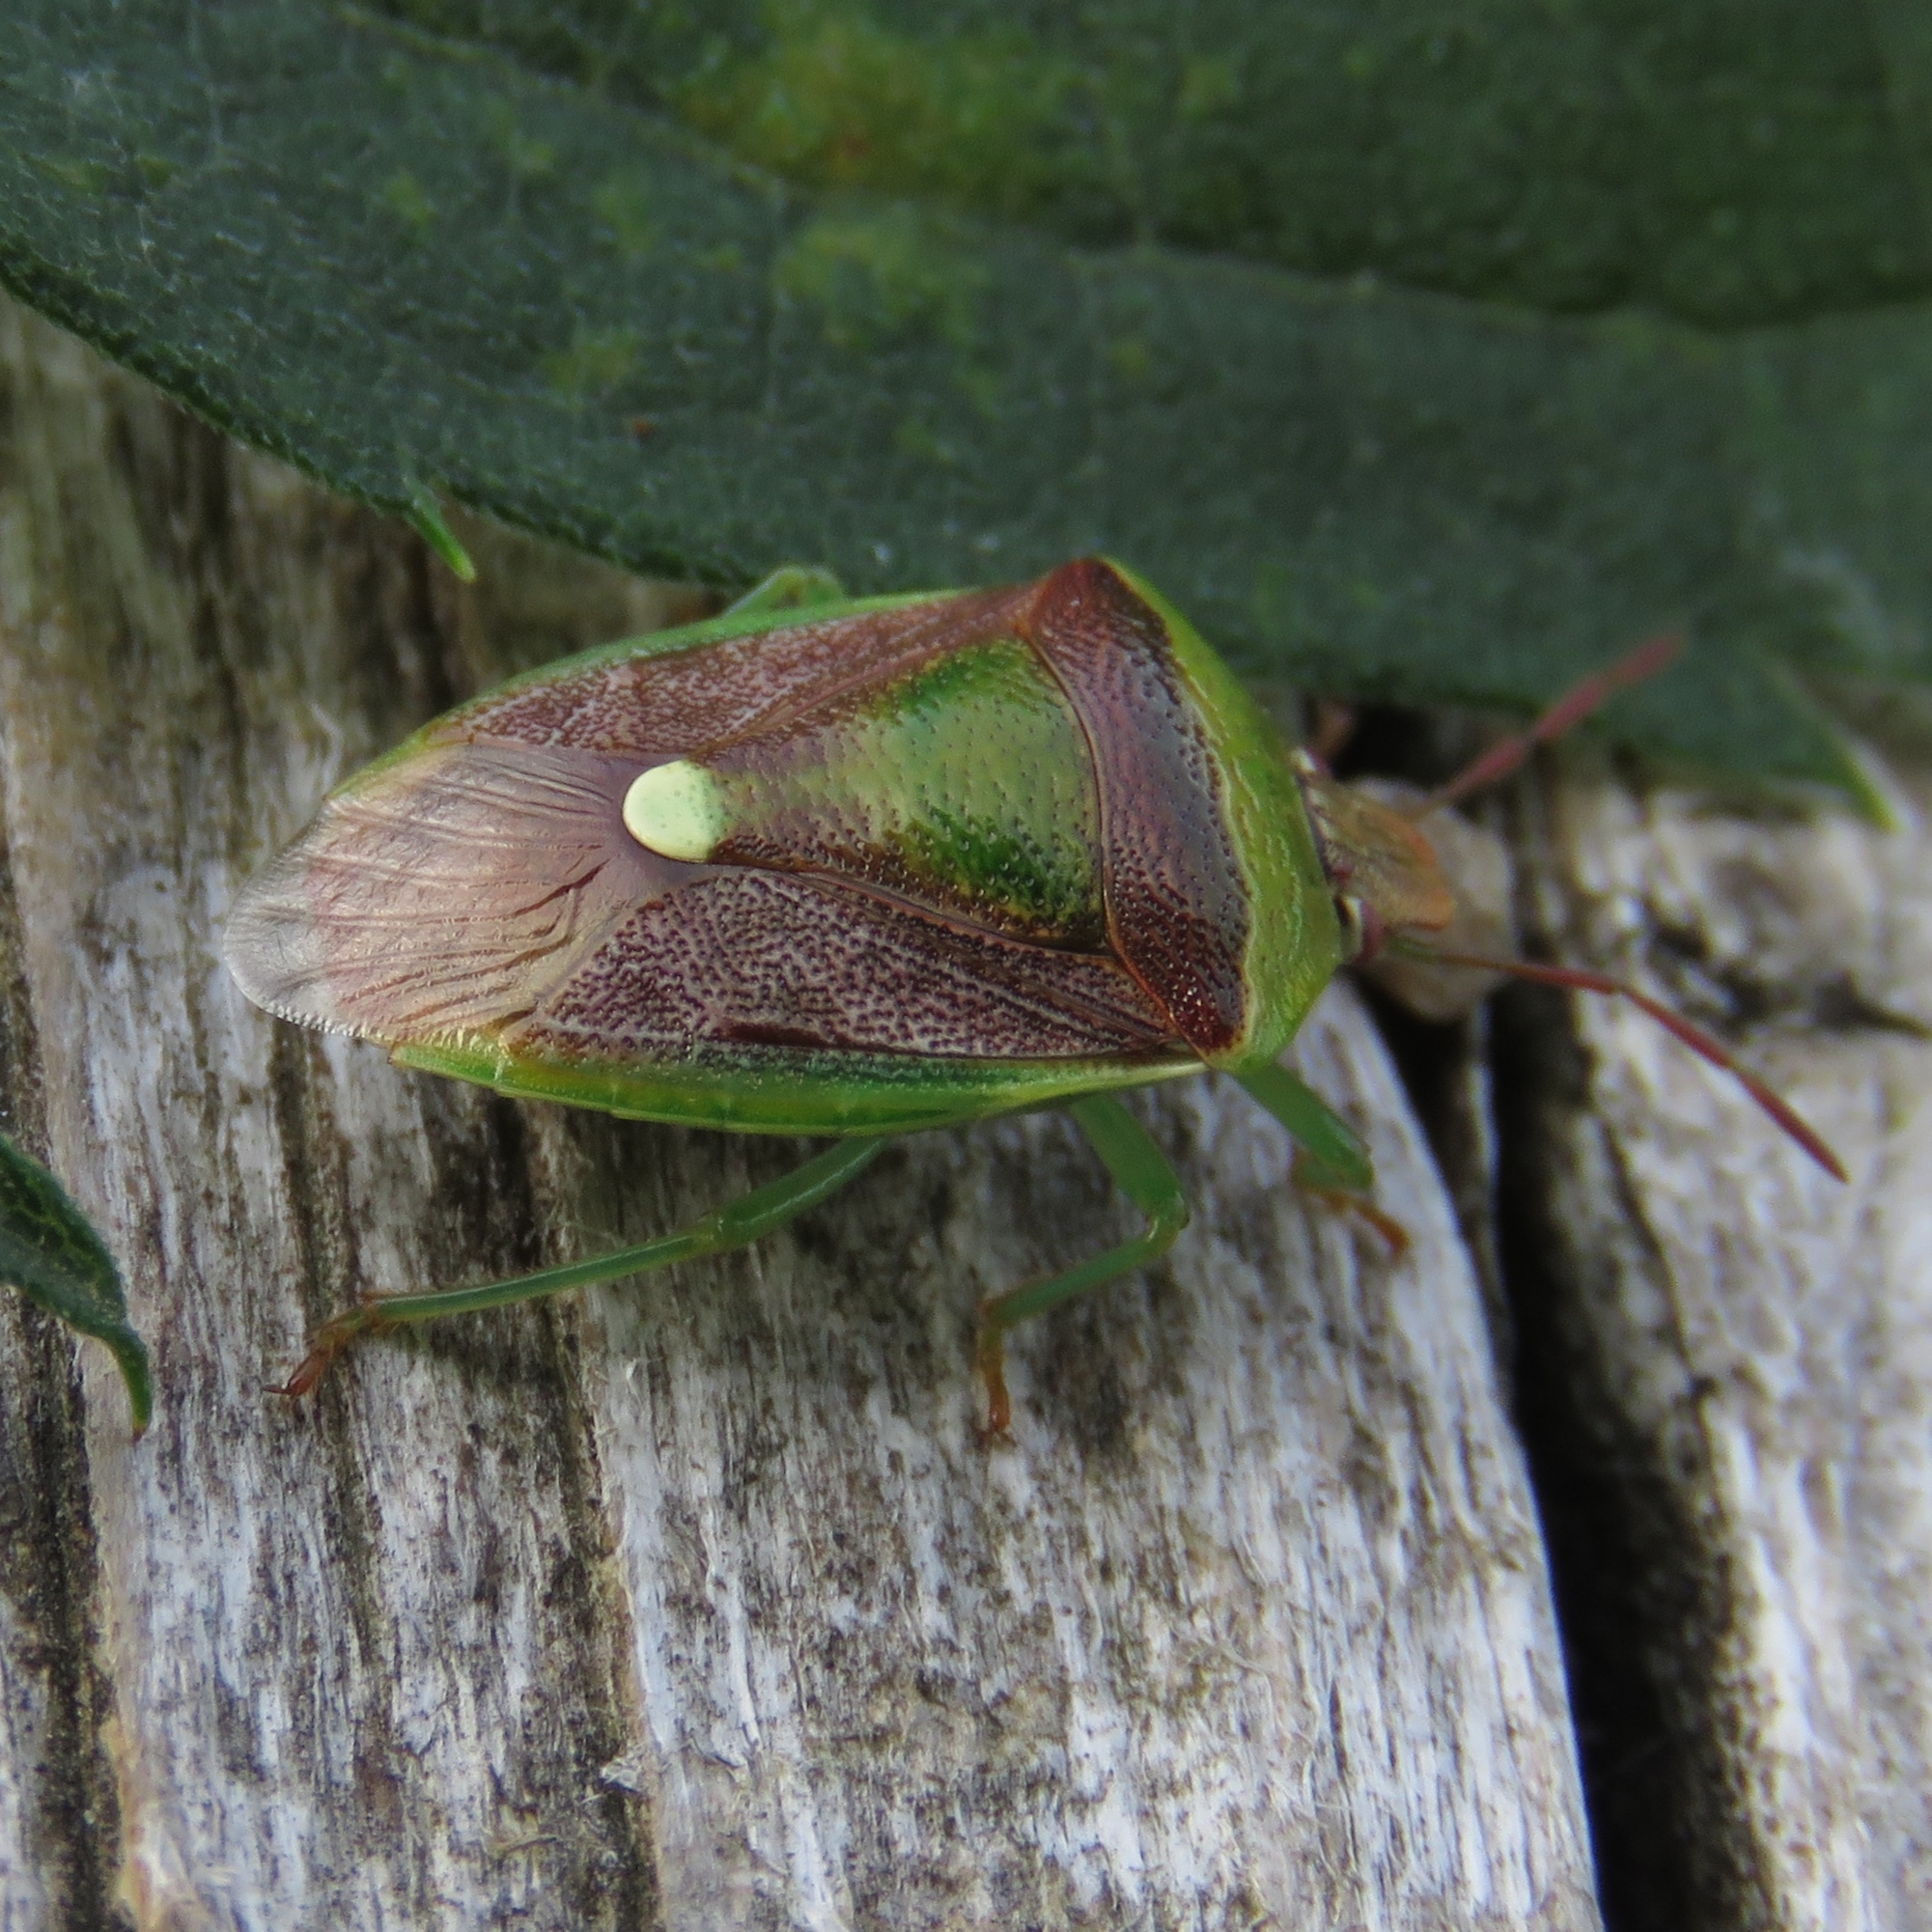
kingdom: Animalia
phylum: Arthropoda
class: Insecta
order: Hemiptera
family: Pentatomidae
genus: Banasa
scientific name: Banasa dimidiata
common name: Green burgundy stink bug
